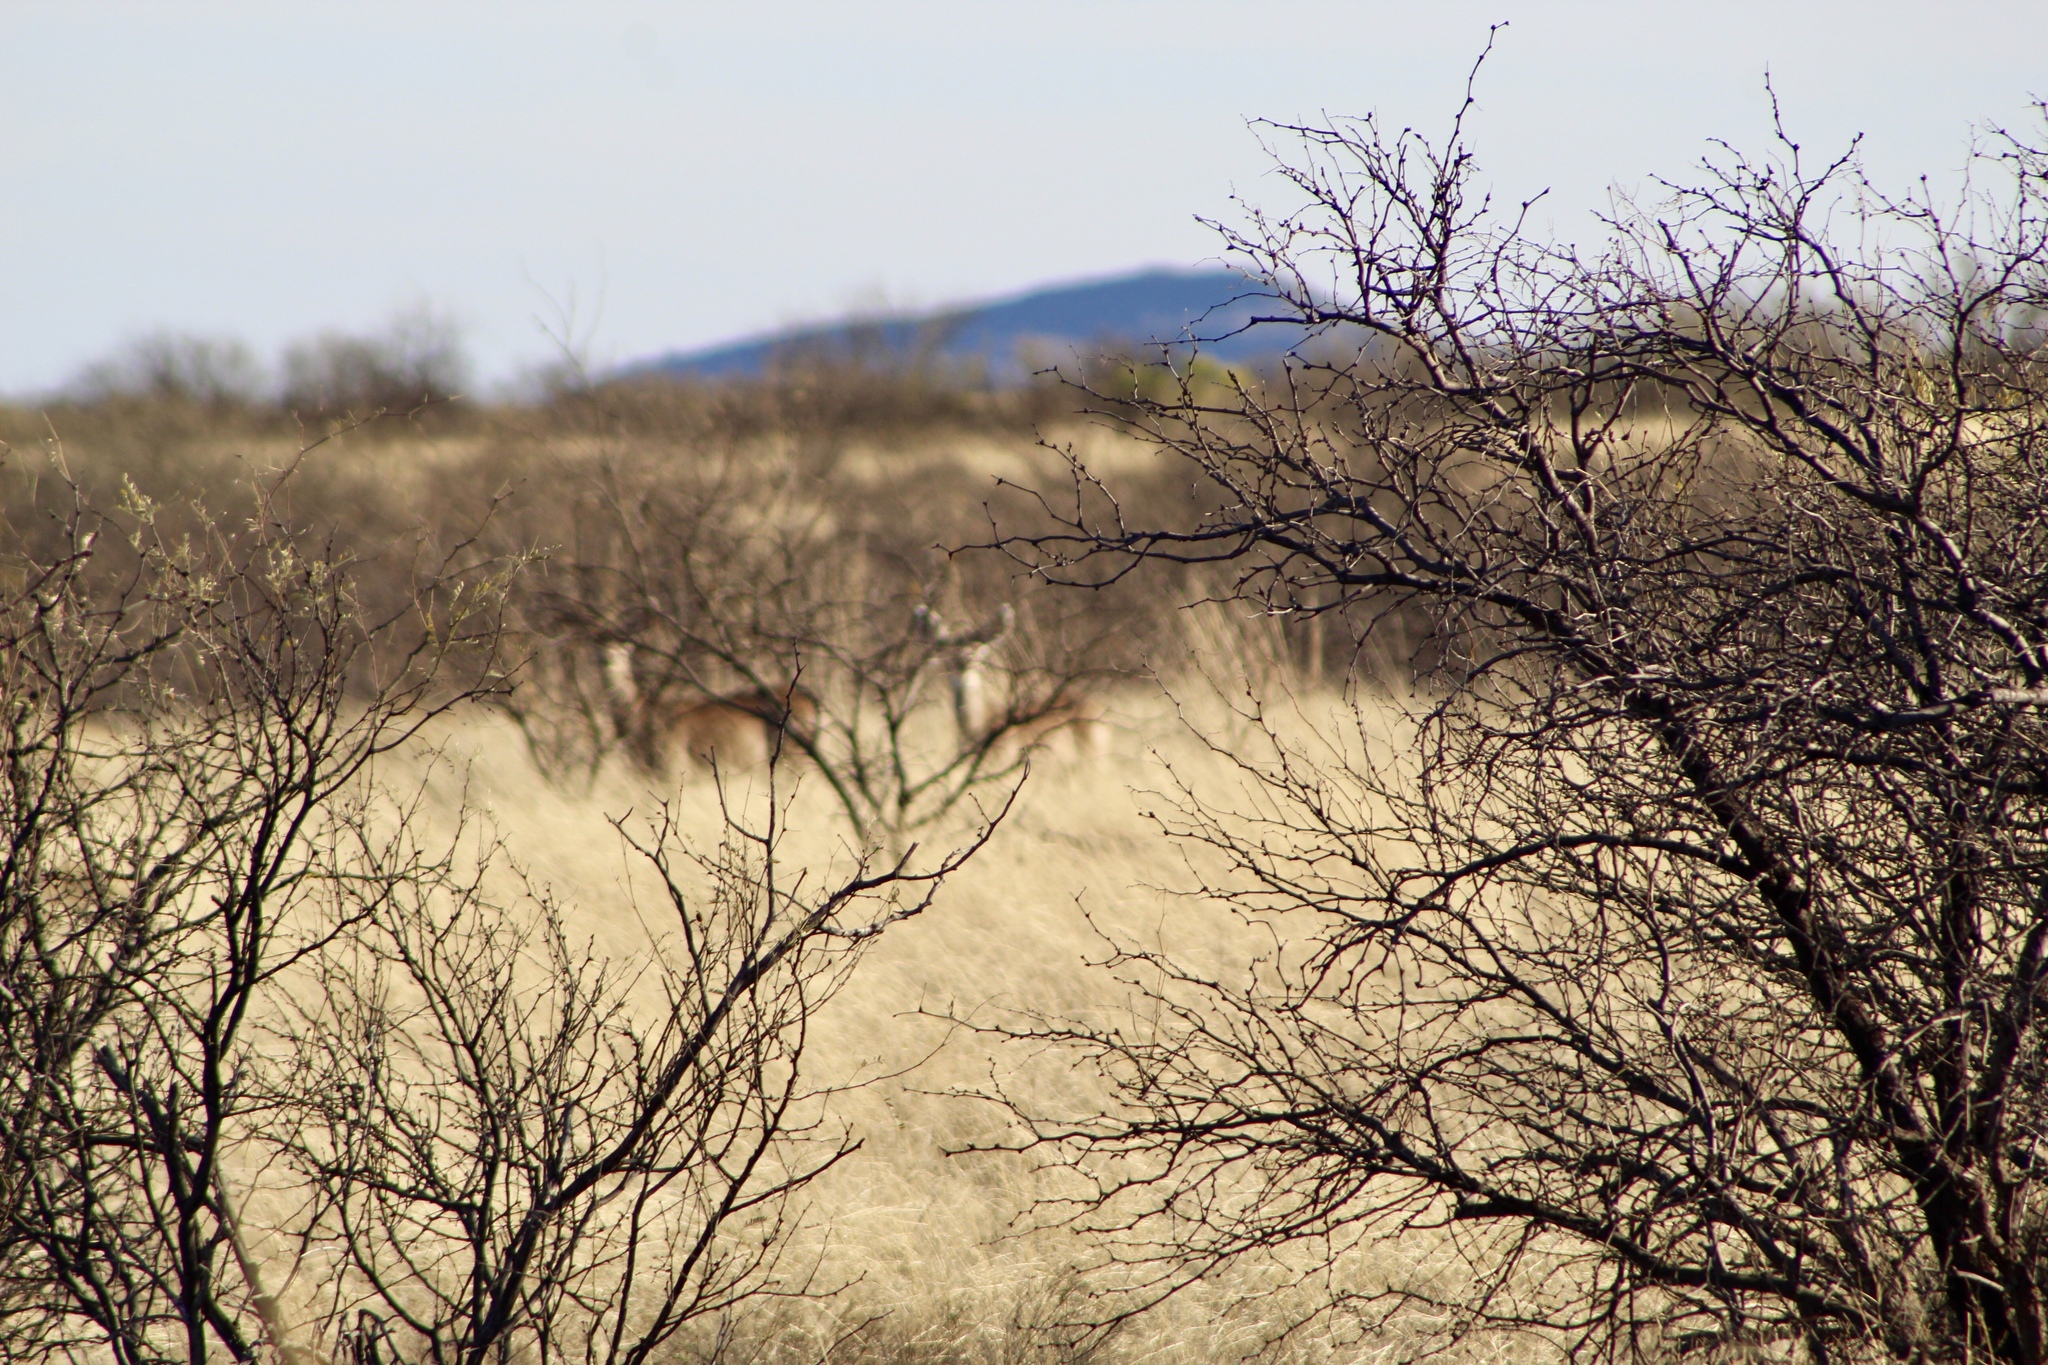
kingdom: Animalia
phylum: Chordata
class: Mammalia
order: Artiodactyla
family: Cervidae
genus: Odocoileus
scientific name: Odocoileus hemionus
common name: Mule deer
